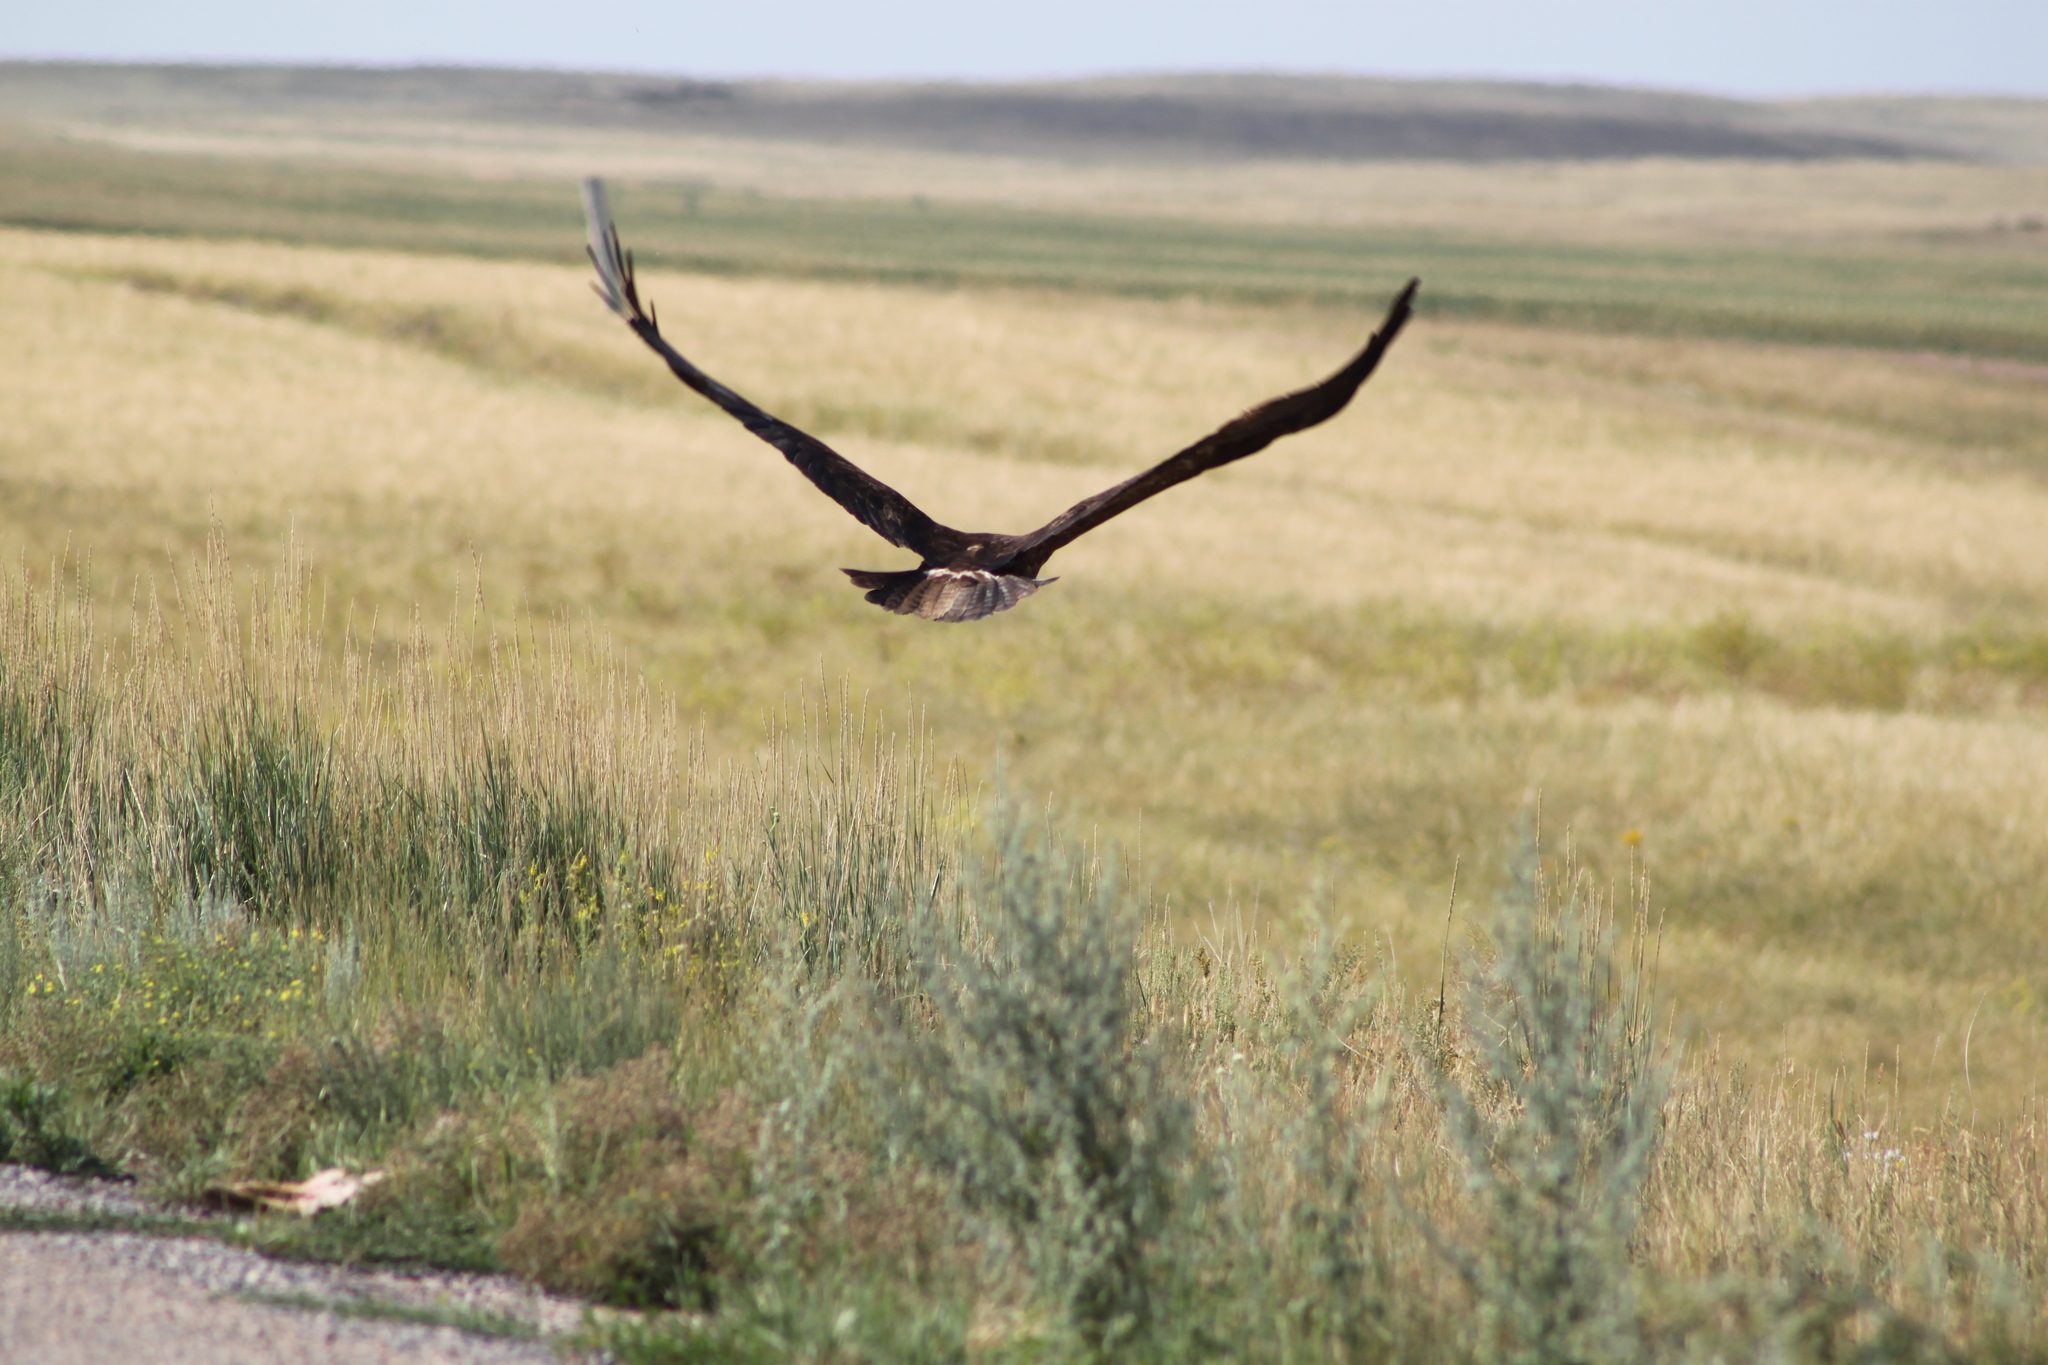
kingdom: Animalia
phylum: Chordata
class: Aves
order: Accipitriformes
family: Accipitridae
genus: Aquila
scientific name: Aquila nipalensis
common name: Steppe eagle
